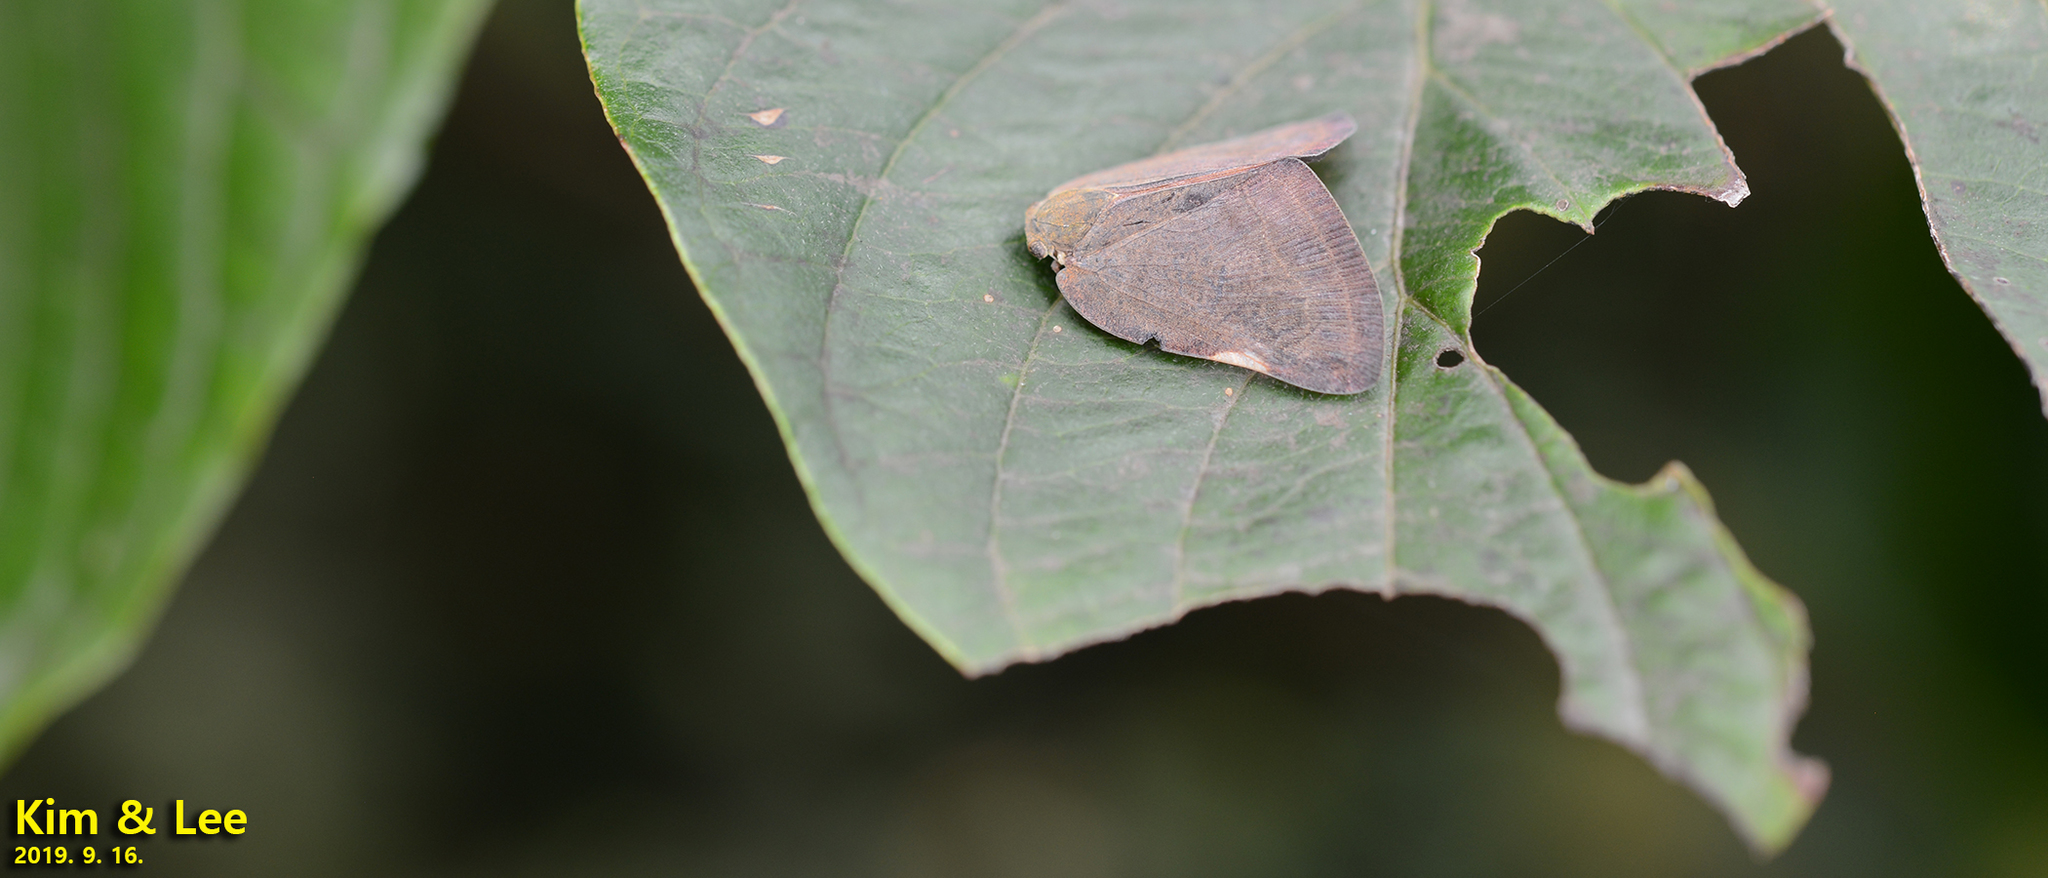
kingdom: Animalia
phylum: Arthropoda
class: Insecta
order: Hemiptera
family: Ricaniidae
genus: Ricanula
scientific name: Ricanula sublimata
